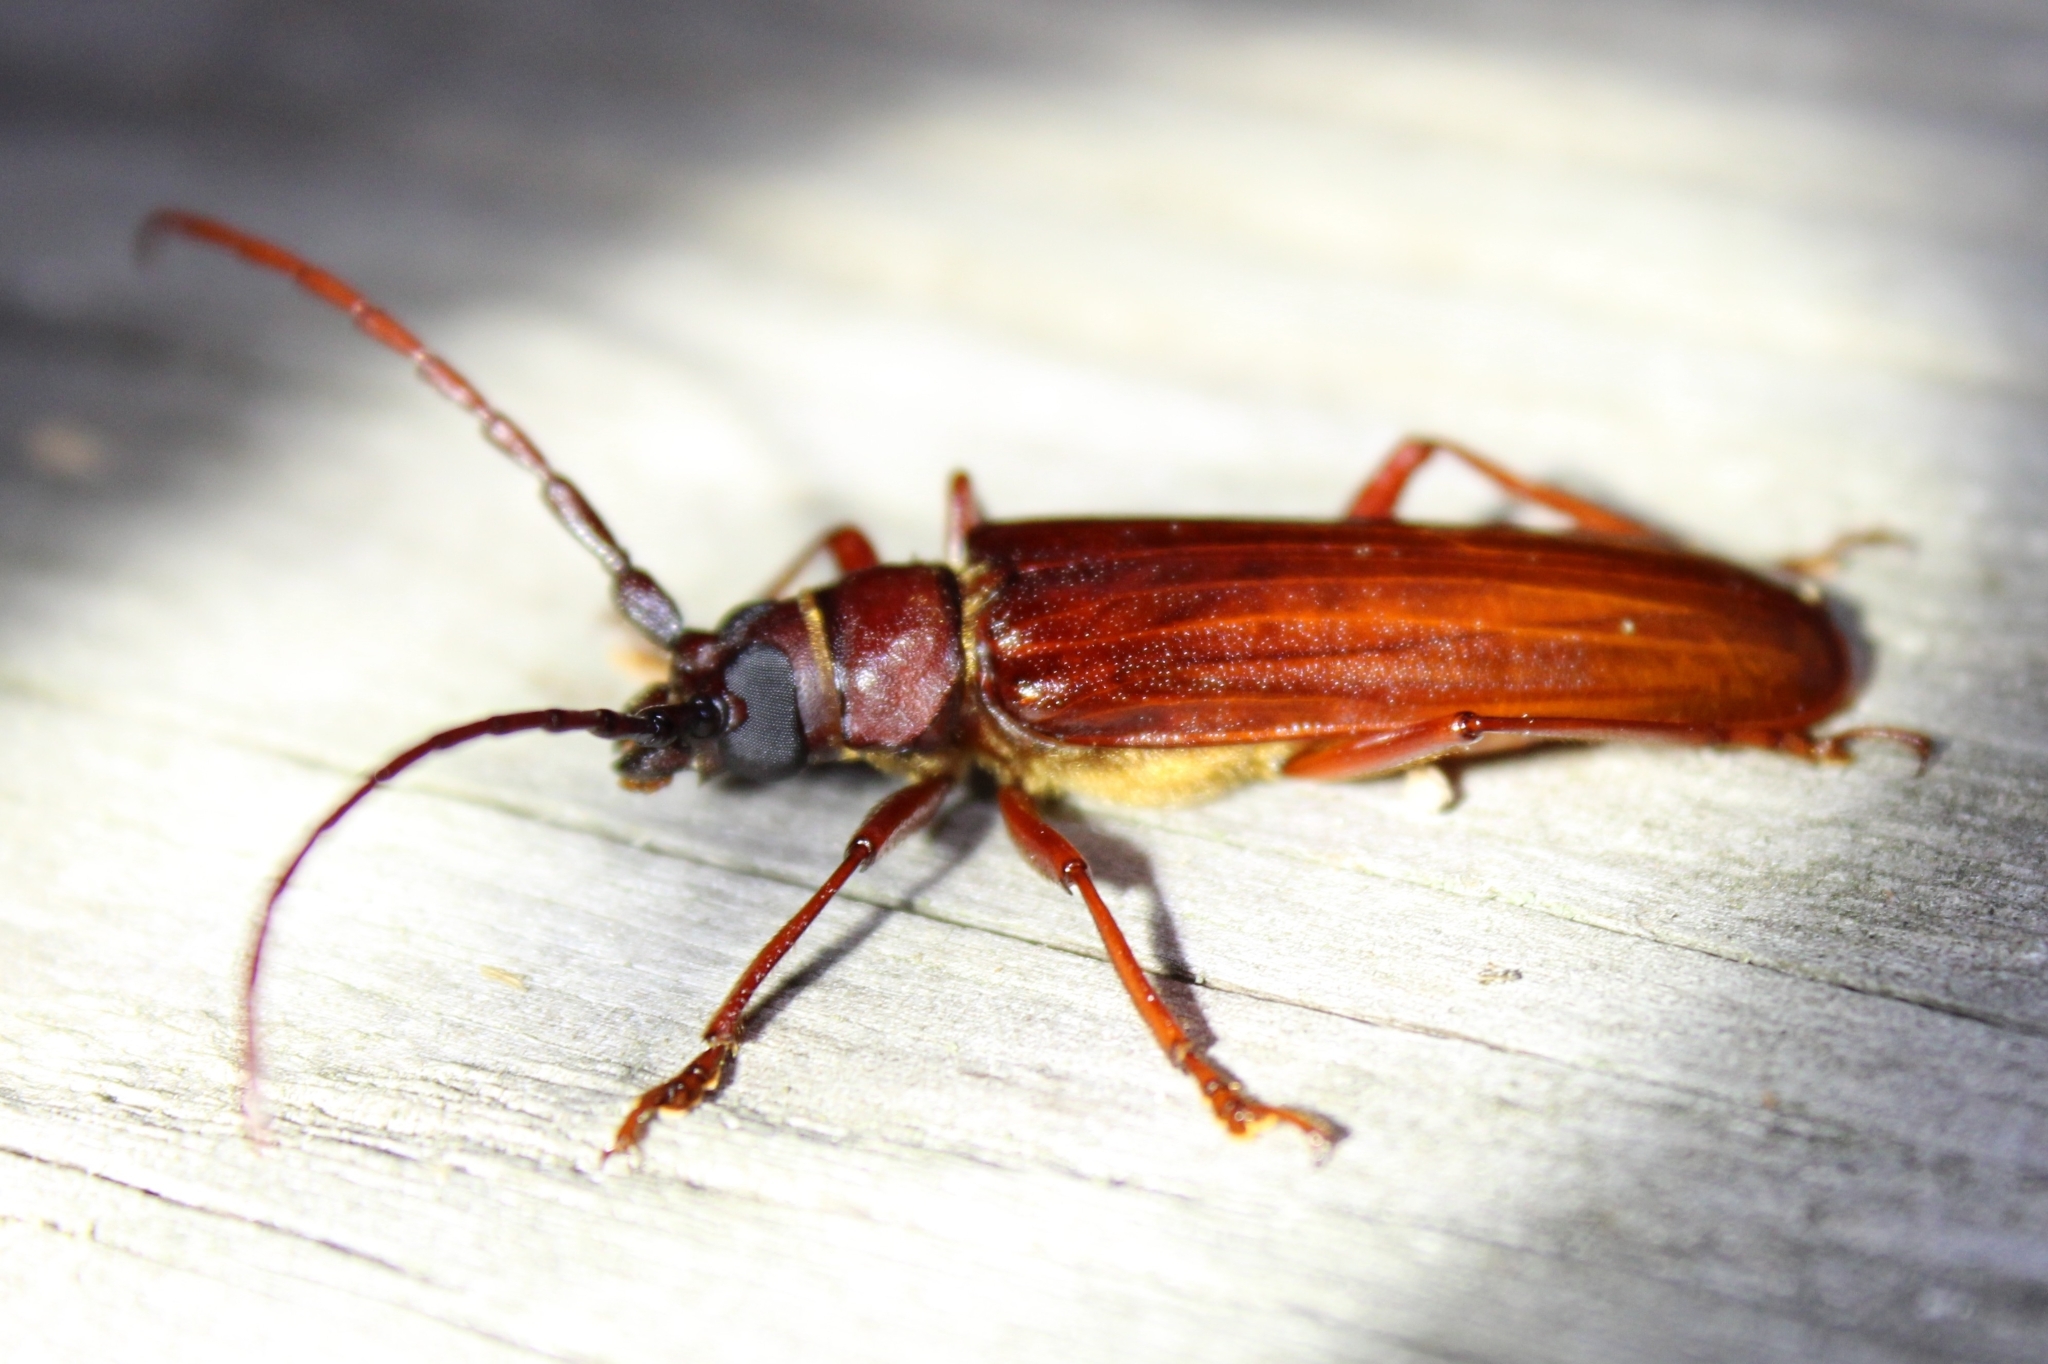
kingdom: Animalia
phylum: Arthropoda
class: Insecta
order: Coleoptera
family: Cerambycidae
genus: Orthosoma
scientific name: Orthosoma brunneum
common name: Brown prionid beetle
